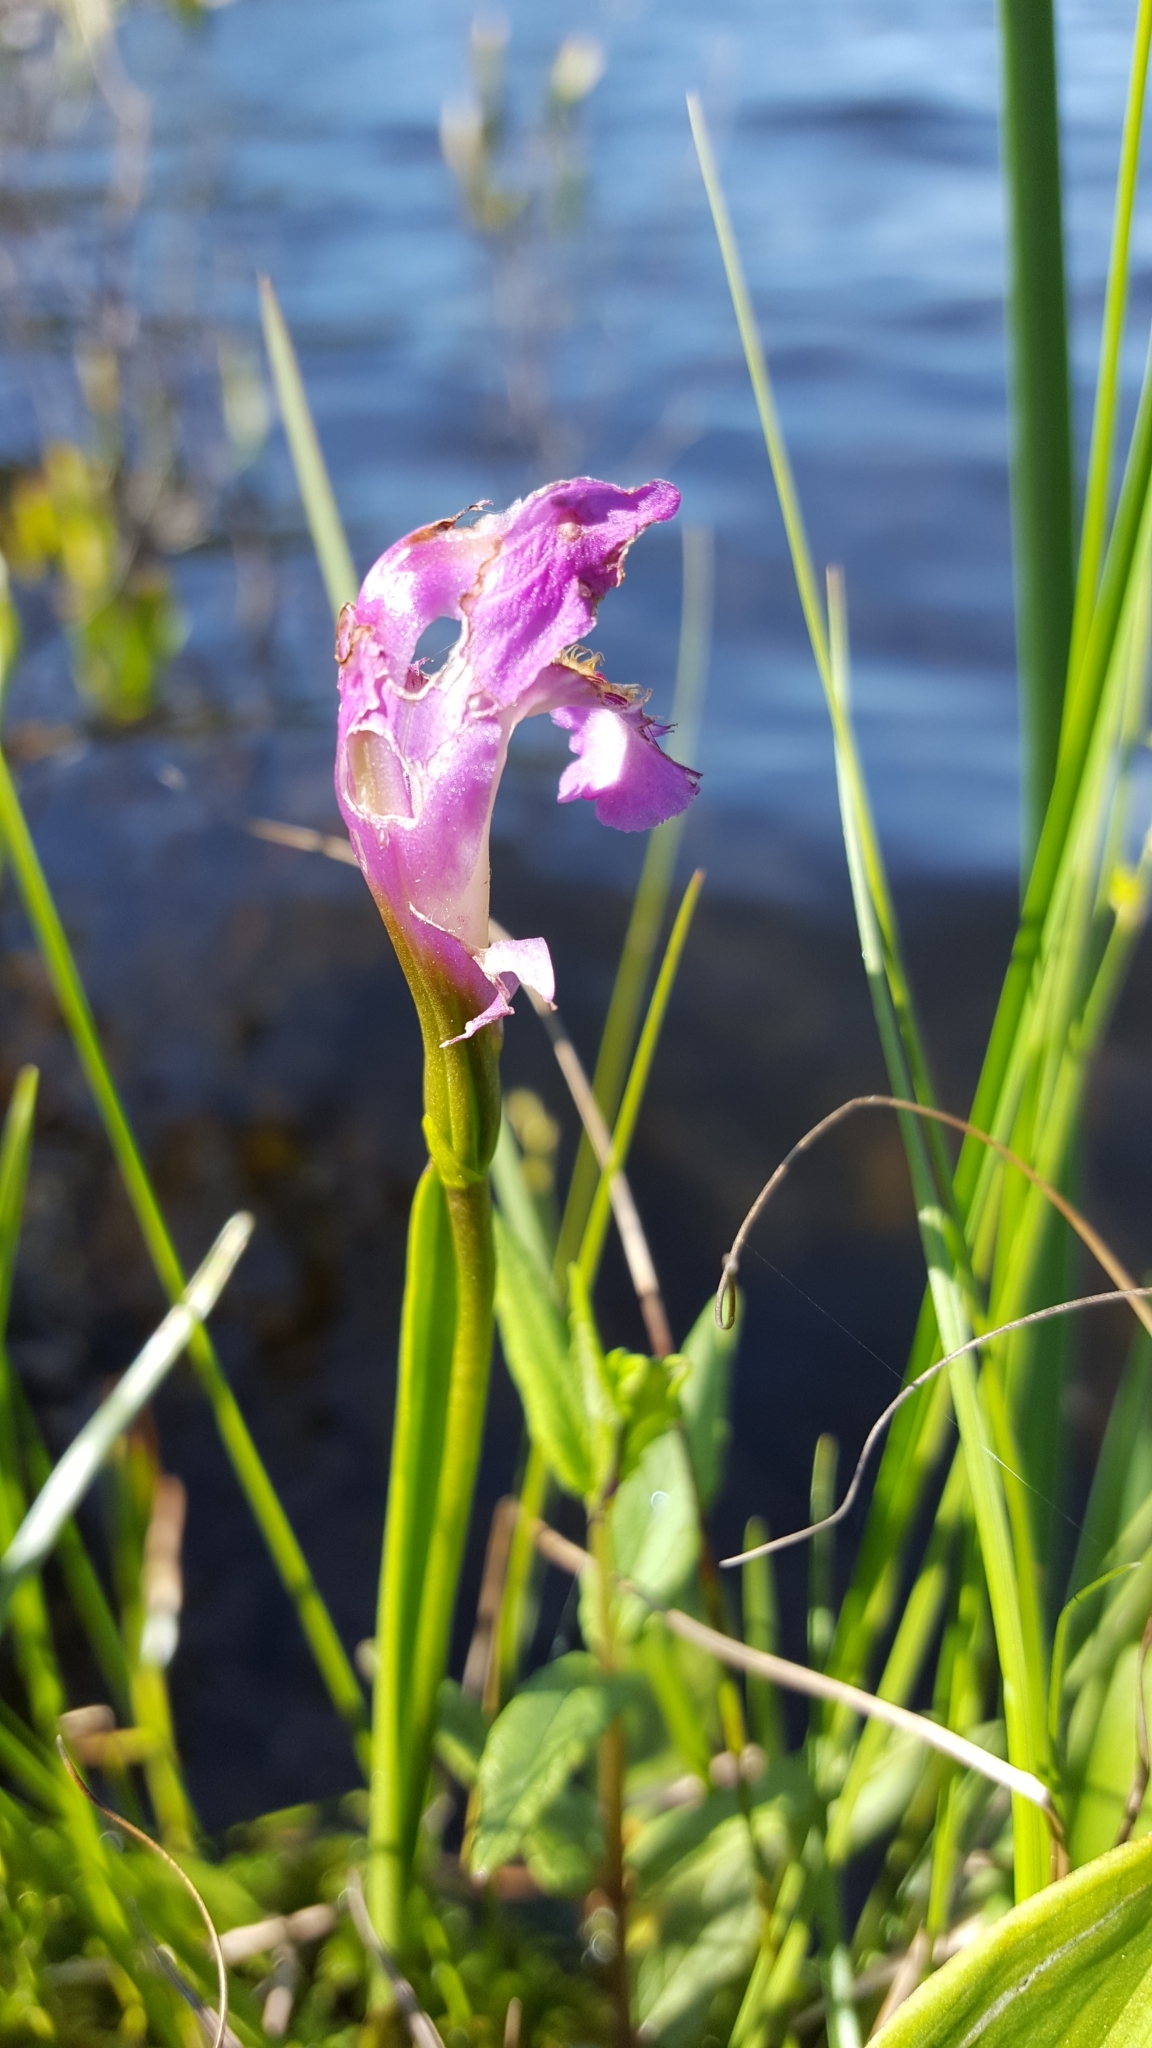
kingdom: Plantae
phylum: Tracheophyta
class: Liliopsida
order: Asparagales
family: Orchidaceae
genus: Arethusa
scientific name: Arethusa bulbosa
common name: Arethusa
